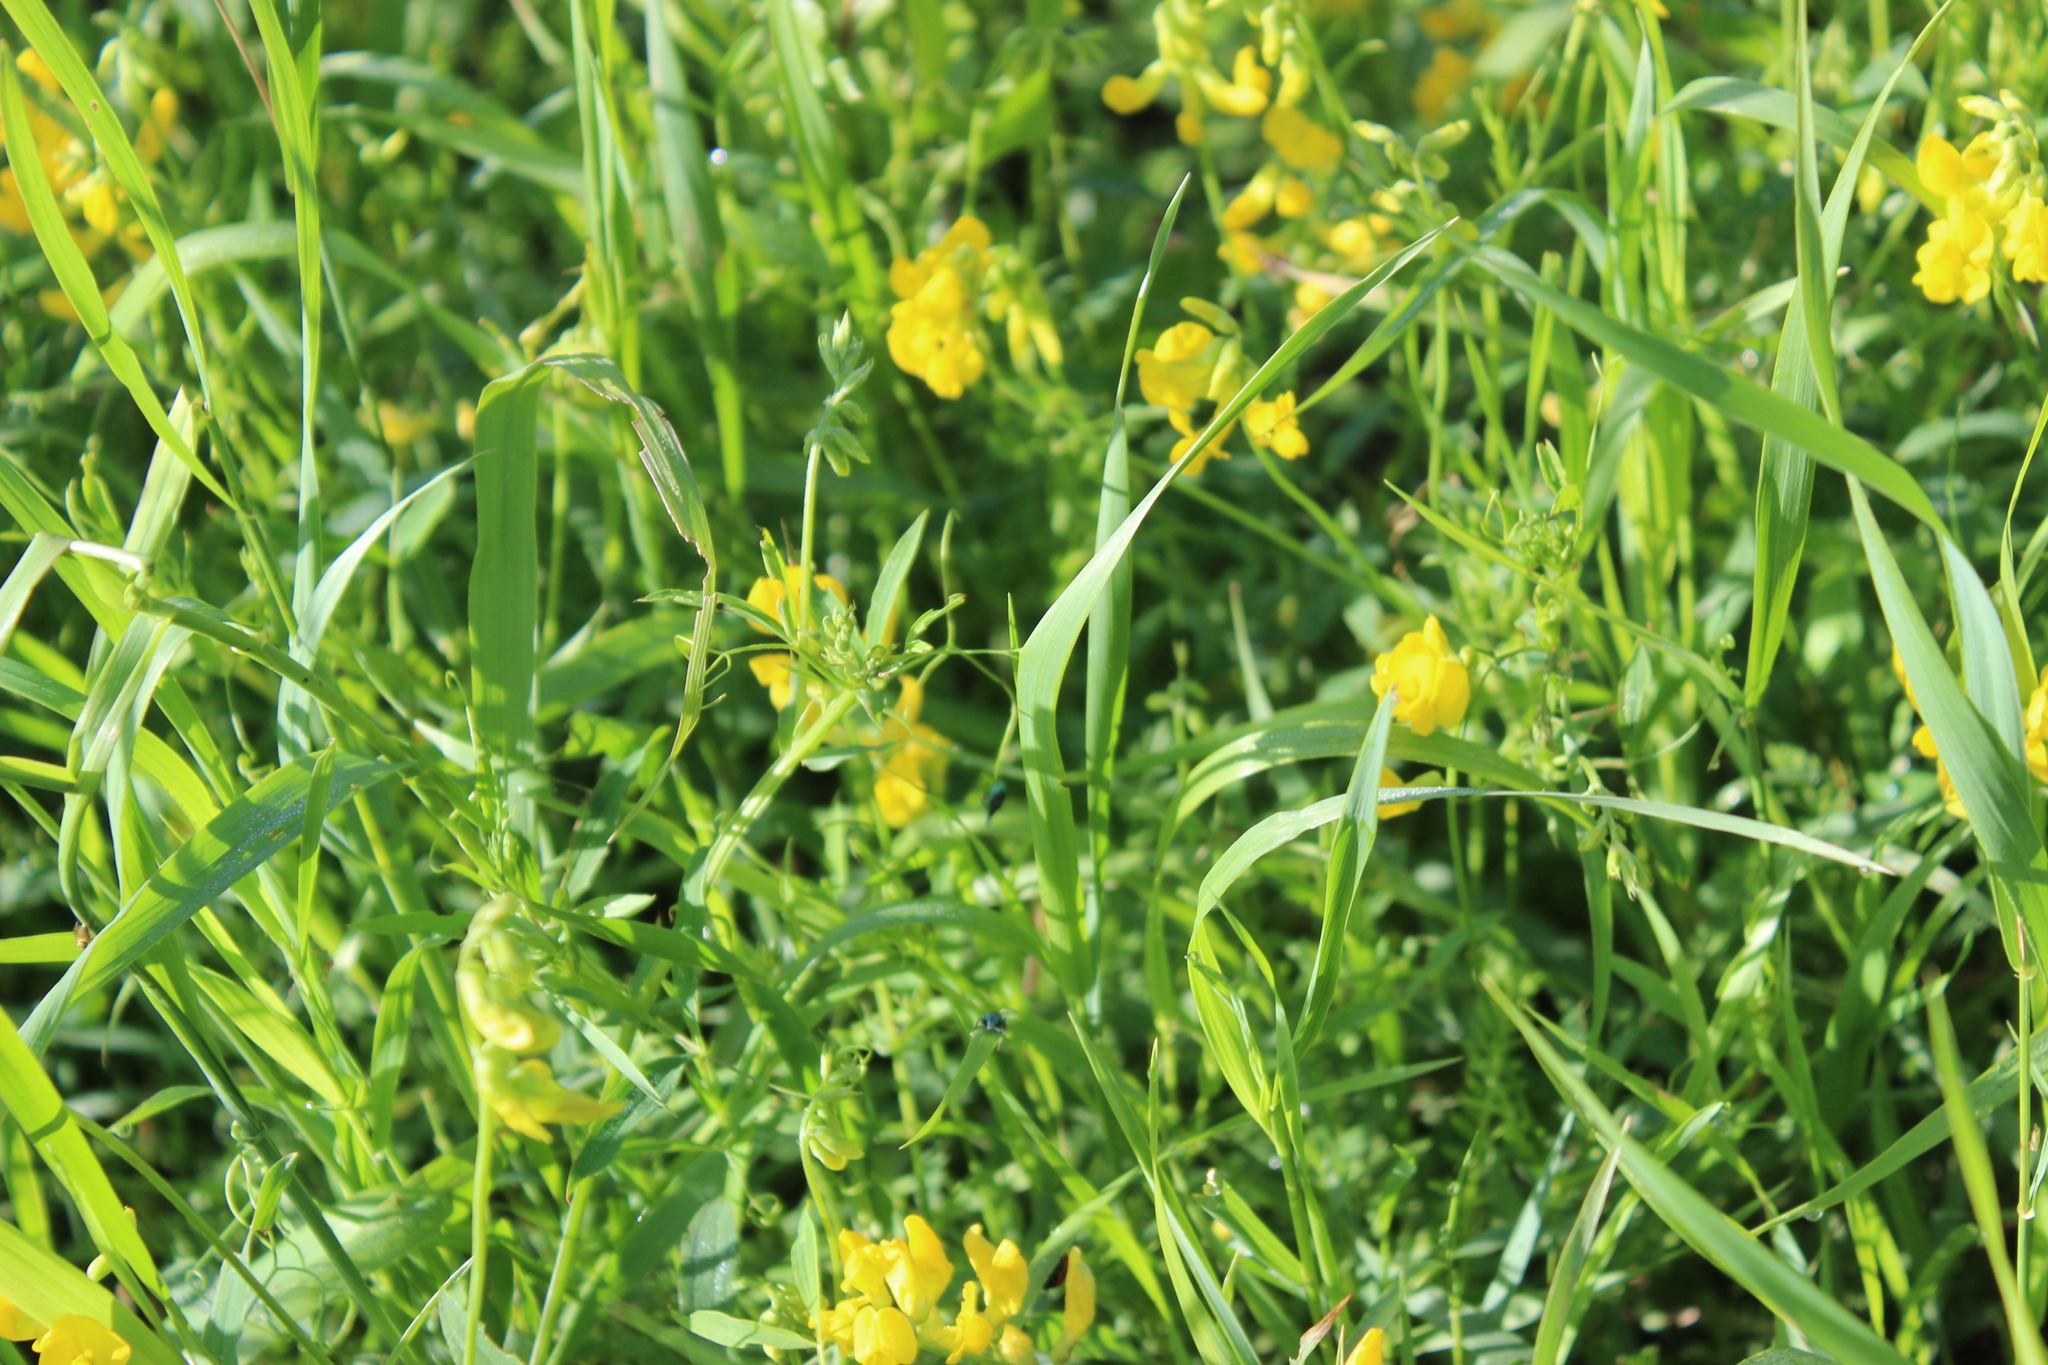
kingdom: Plantae
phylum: Tracheophyta
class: Magnoliopsida
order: Fabales
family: Fabaceae
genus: Lathyrus
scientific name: Lathyrus pratensis
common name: Meadow vetchling
